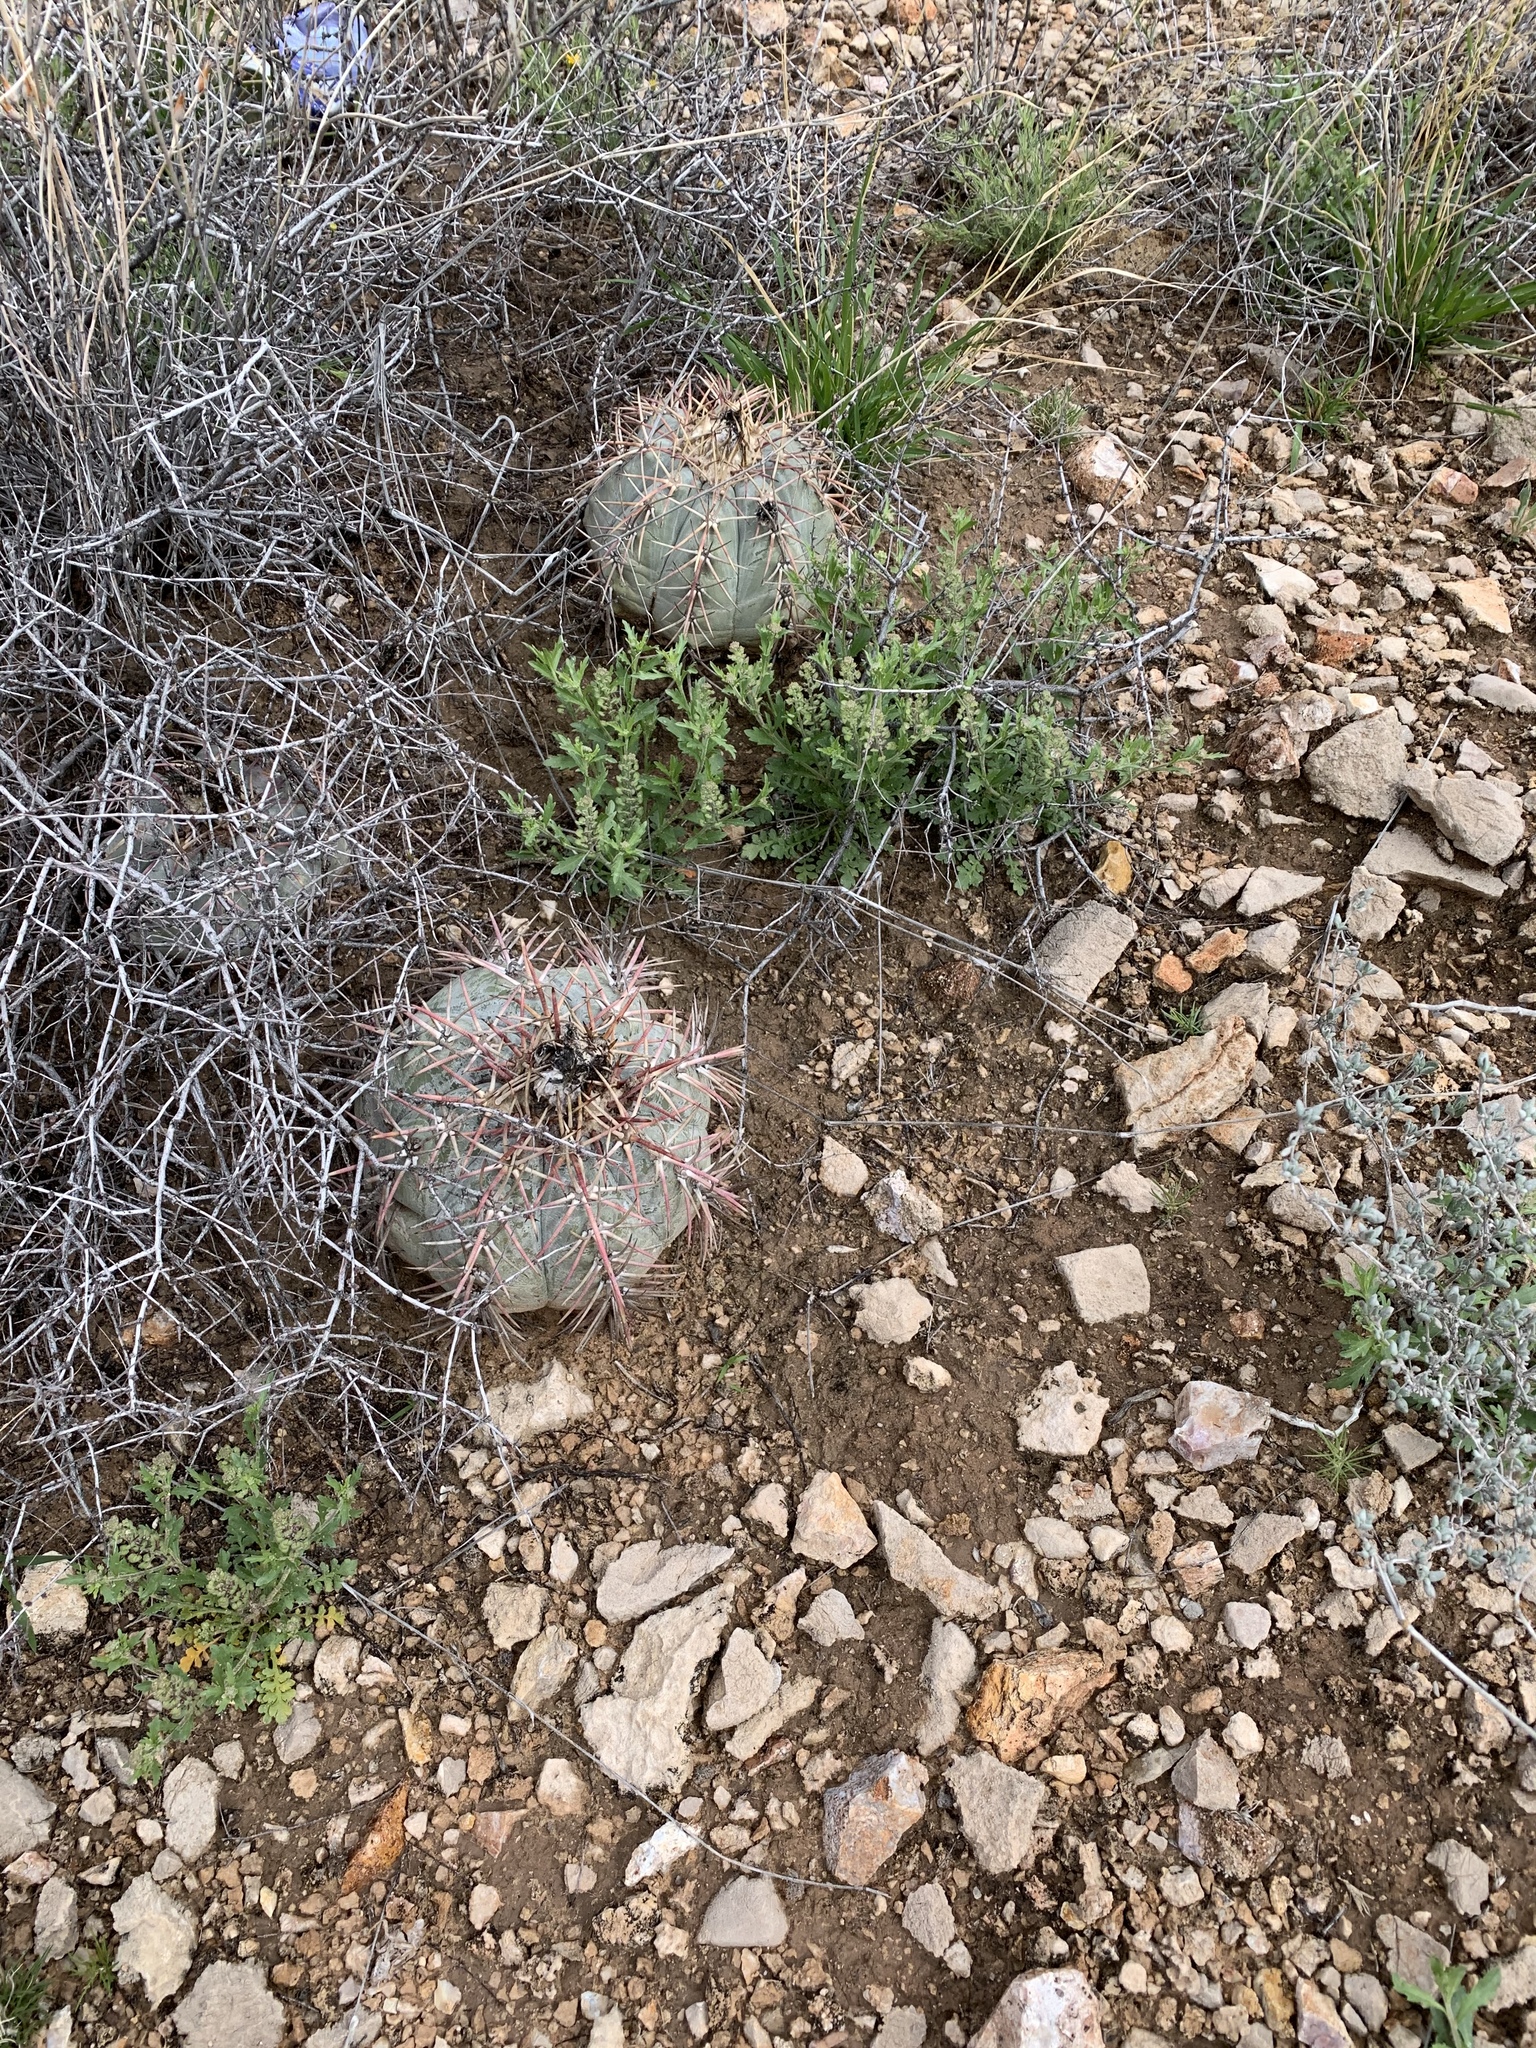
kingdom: Plantae
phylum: Tracheophyta
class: Magnoliopsida
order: Caryophyllales
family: Cactaceae
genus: Echinocactus
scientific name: Echinocactus horizonthalonius
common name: Devilshead
